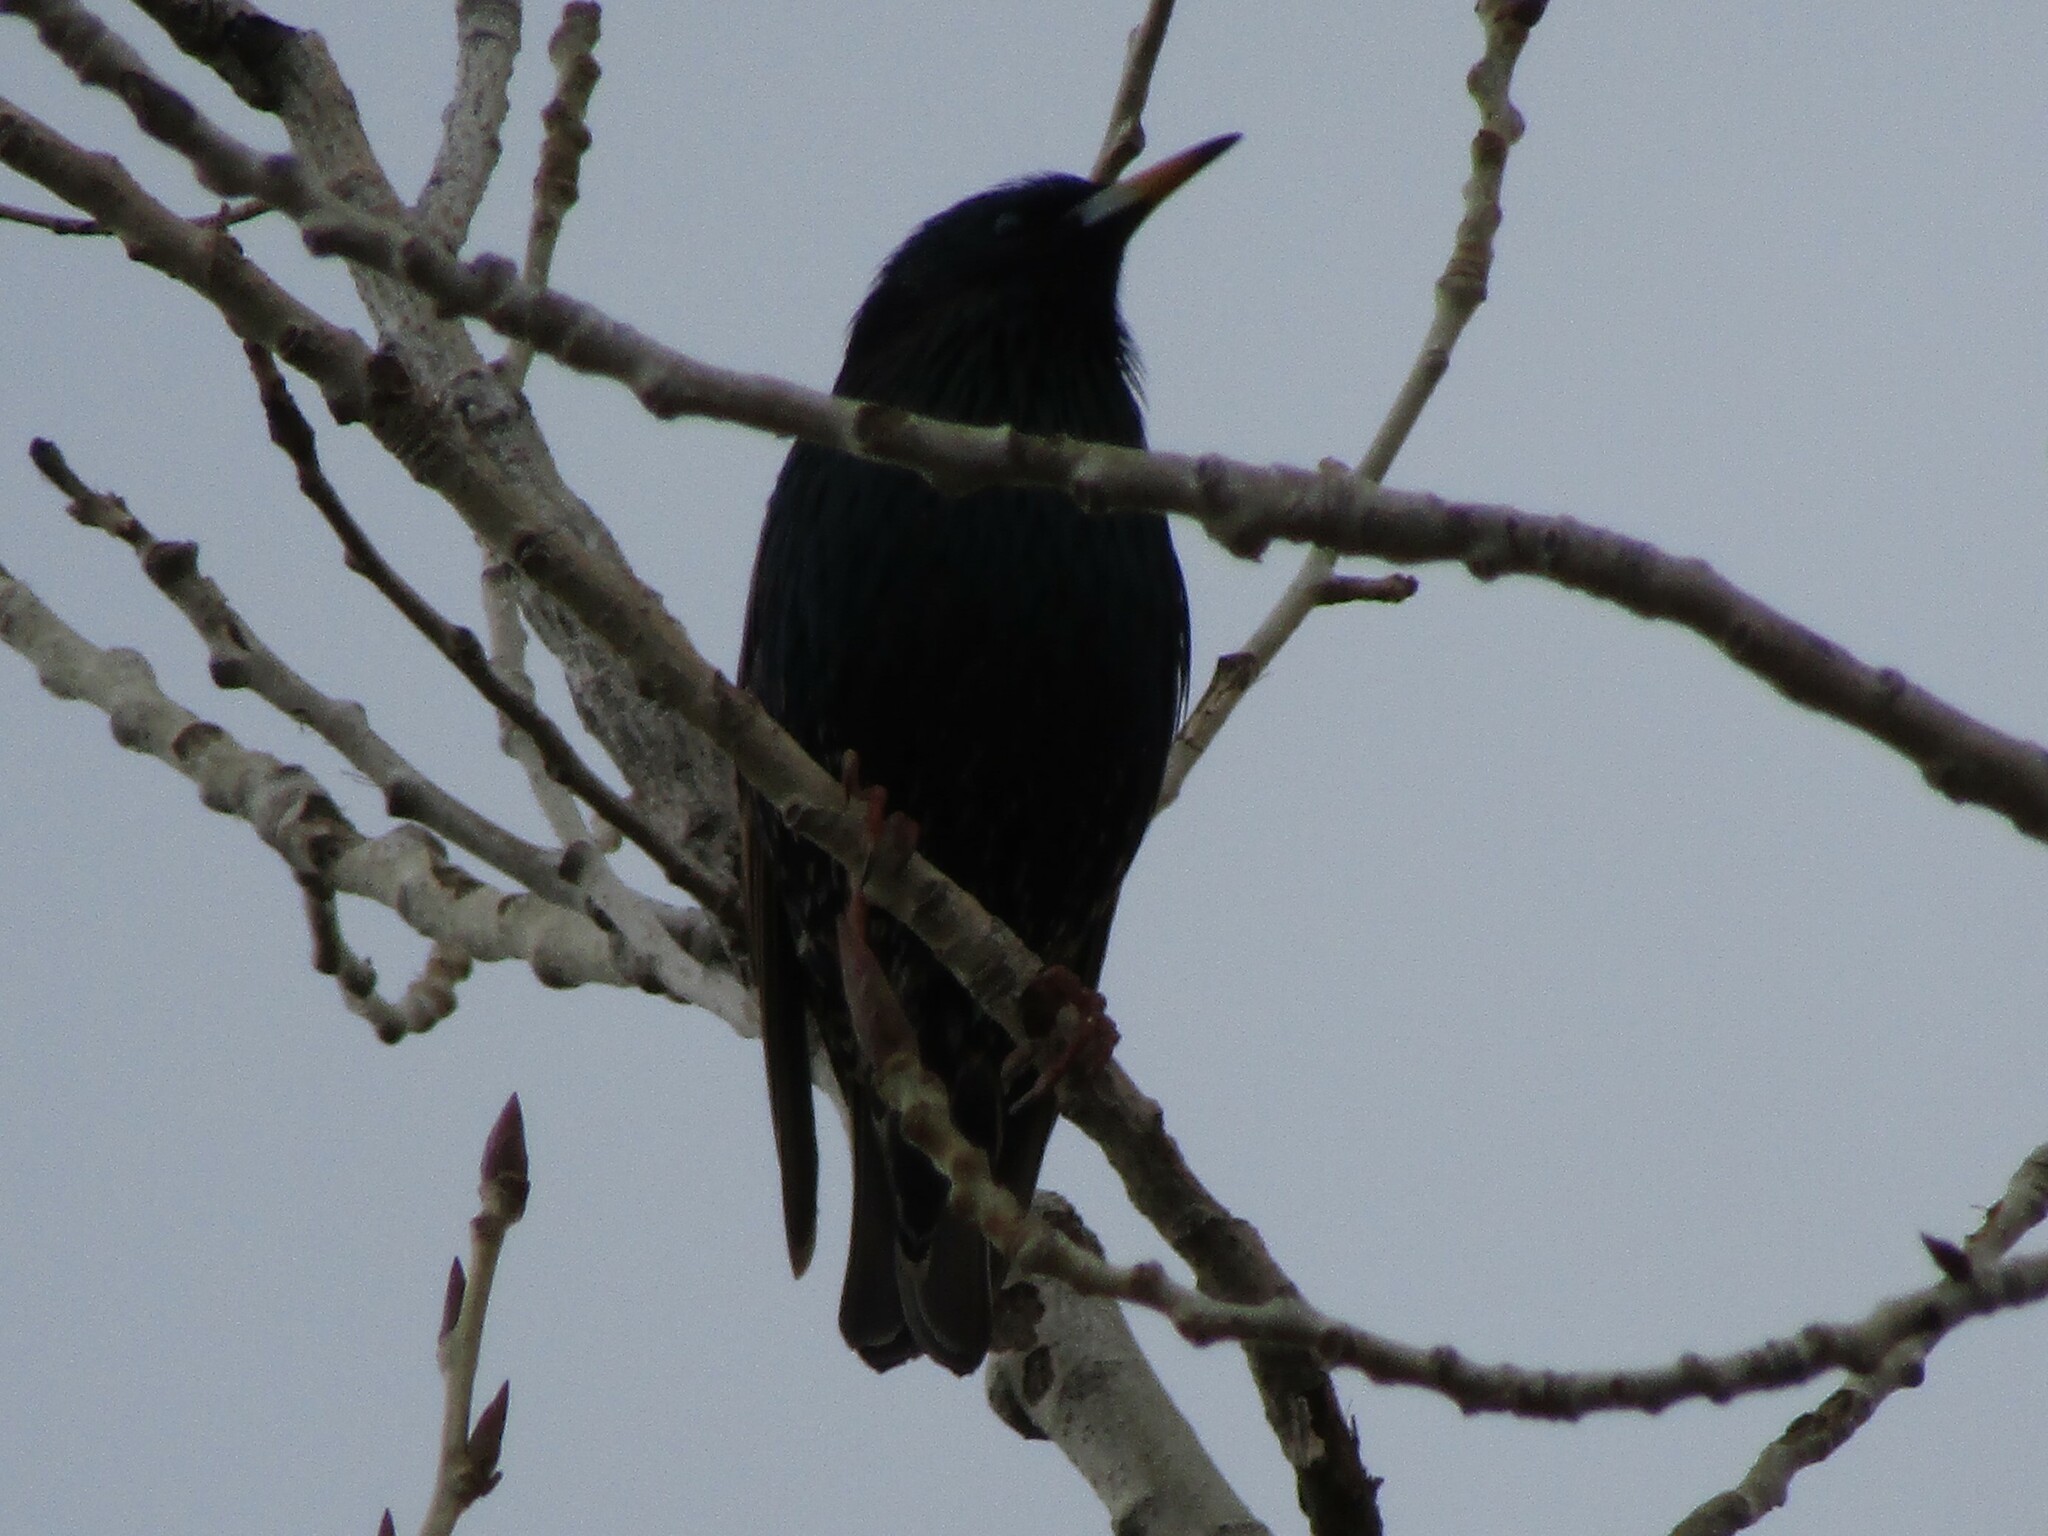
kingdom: Animalia
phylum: Chordata
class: Aves
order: Passeriformes
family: Sturnidae
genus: Sturnus
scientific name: Sturnus vulgaris
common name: Common starling
